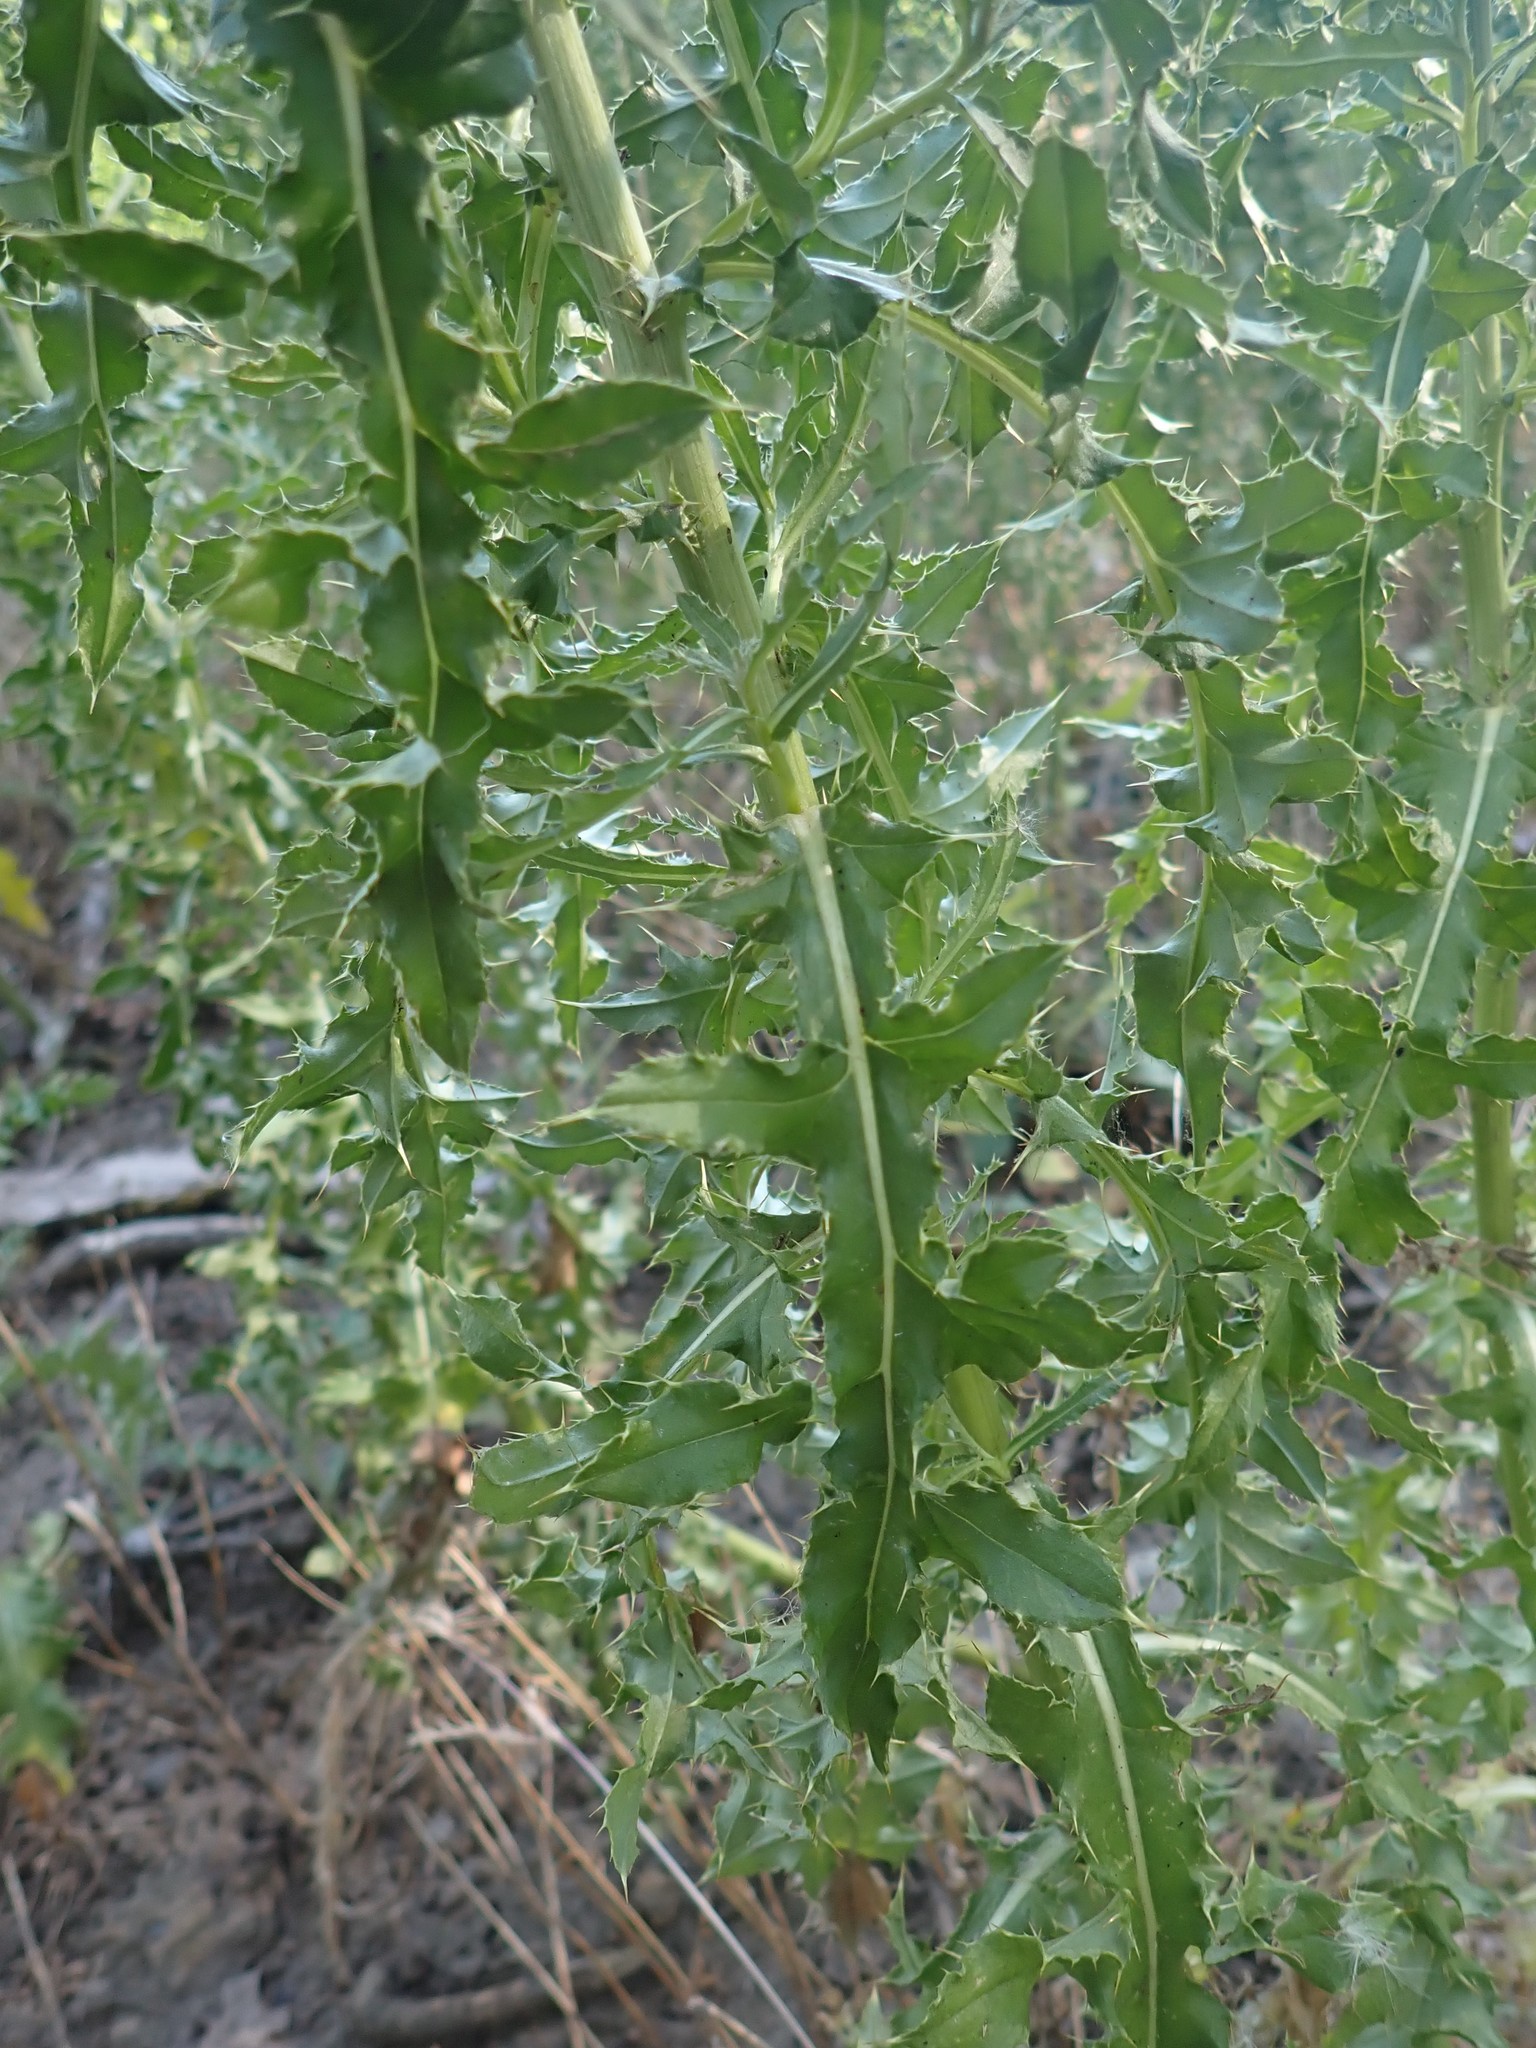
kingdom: Plantae
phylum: Tracheophyta
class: Magnoliopsida
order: Asterales
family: Asteraceae
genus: Cirsium
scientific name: Cirsium arvense
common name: Creeping thistle
